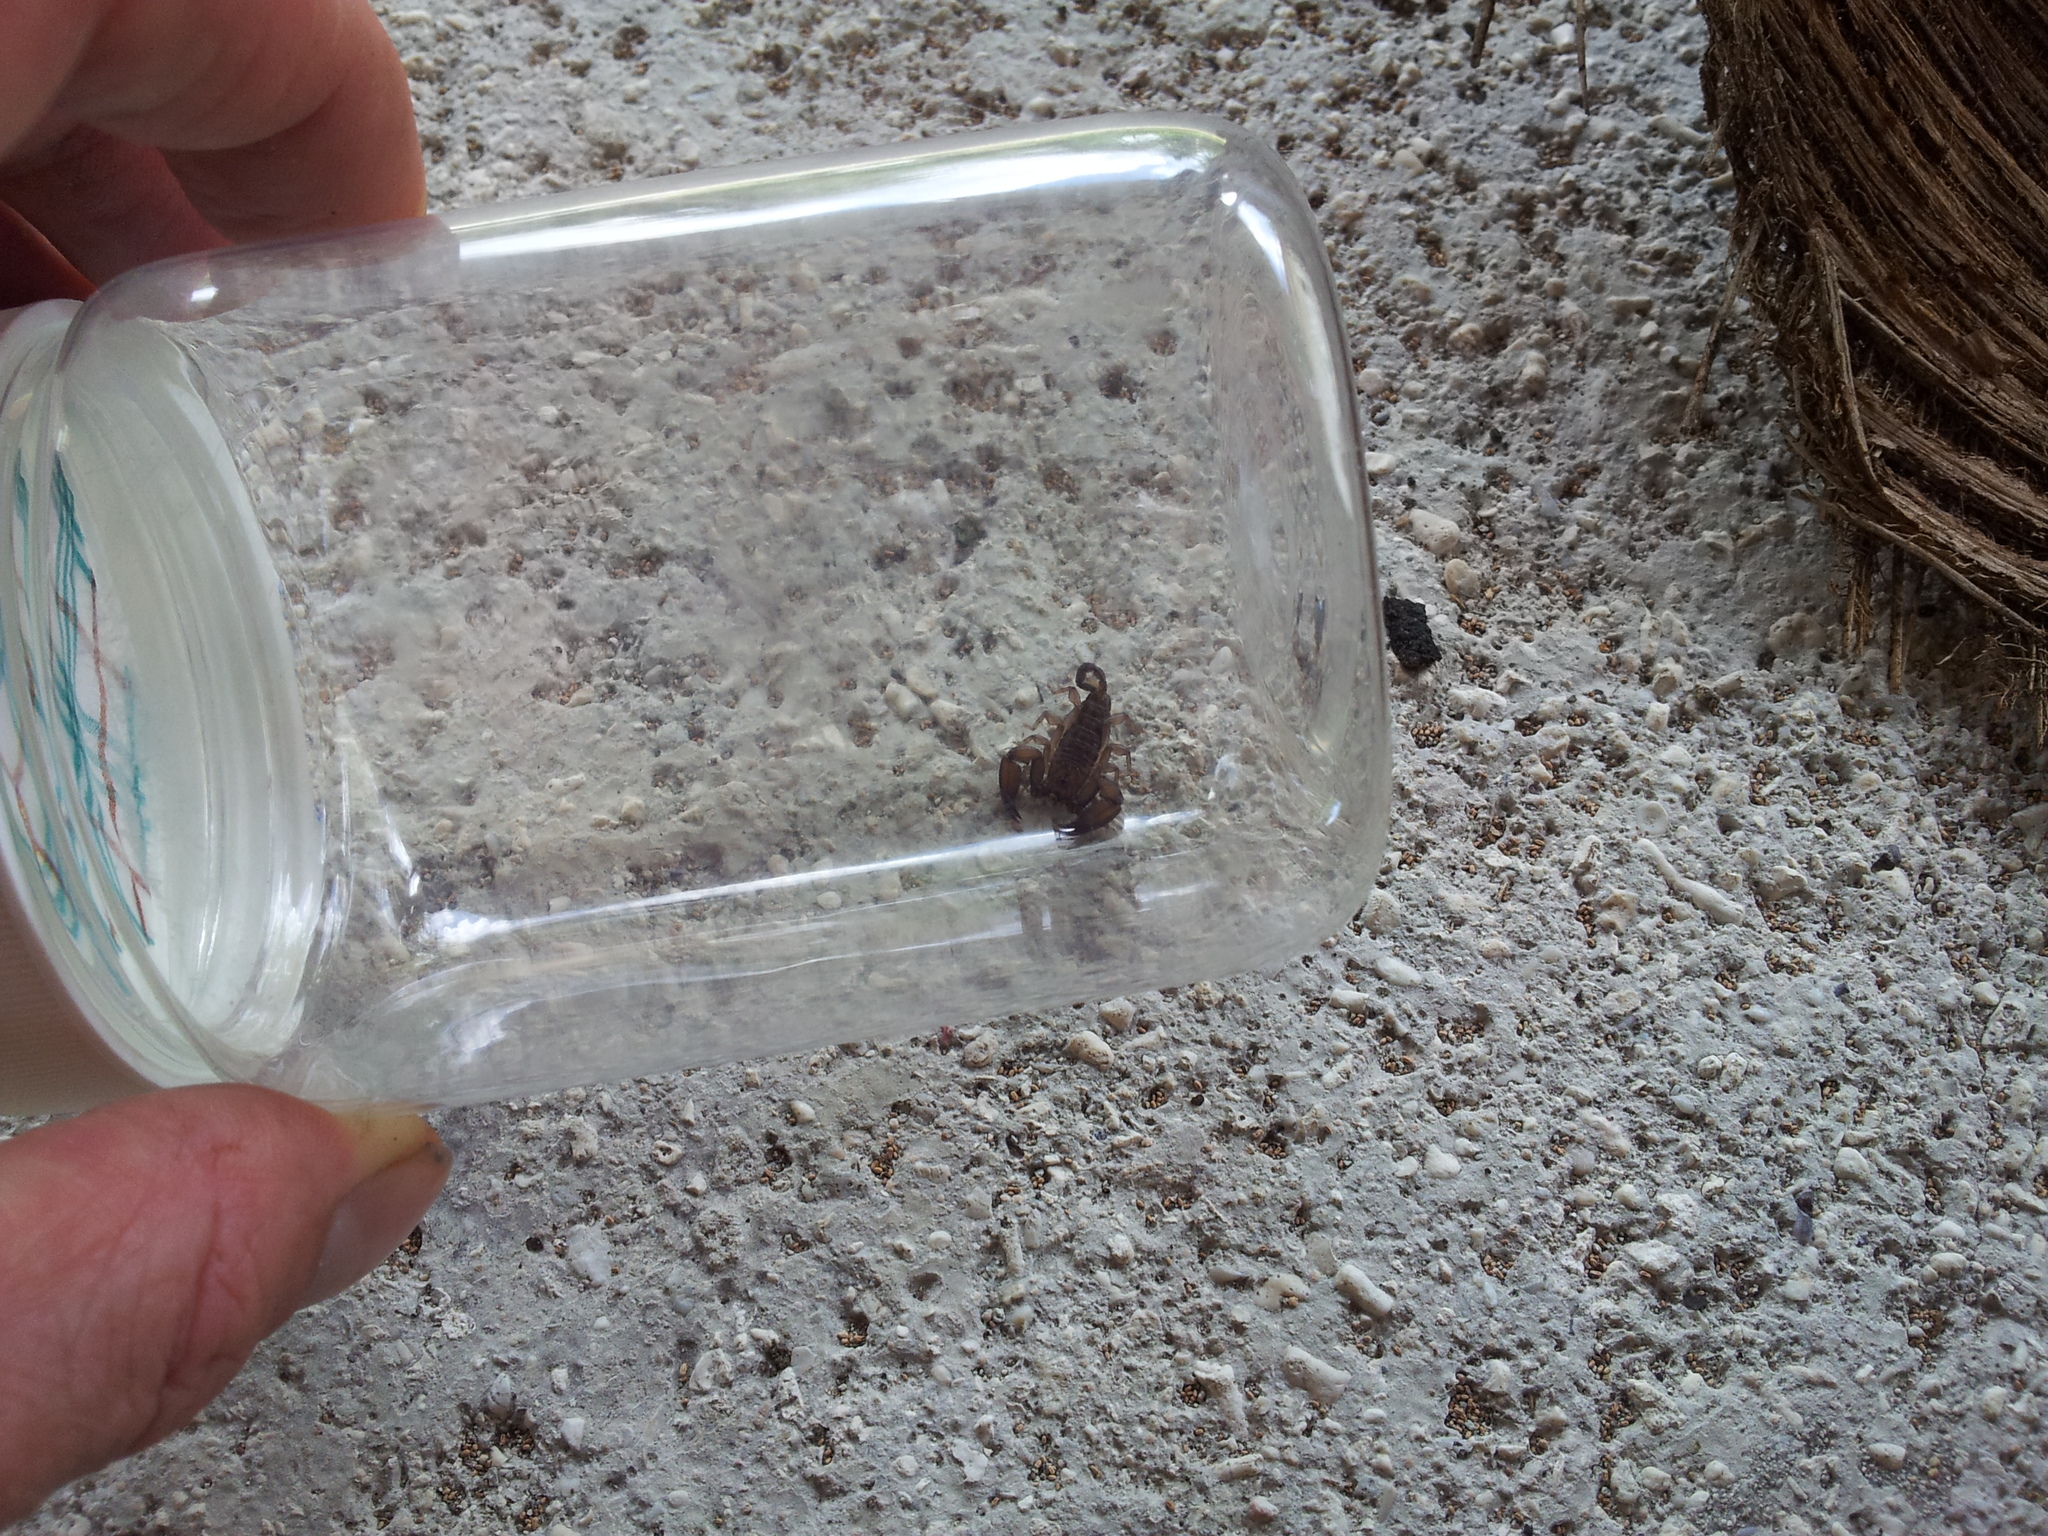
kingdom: Animalia
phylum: Arthropoda
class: Arachnida
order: Scorpiones
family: Hormuridae
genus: Liocheles
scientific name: Liocheles australasiae
